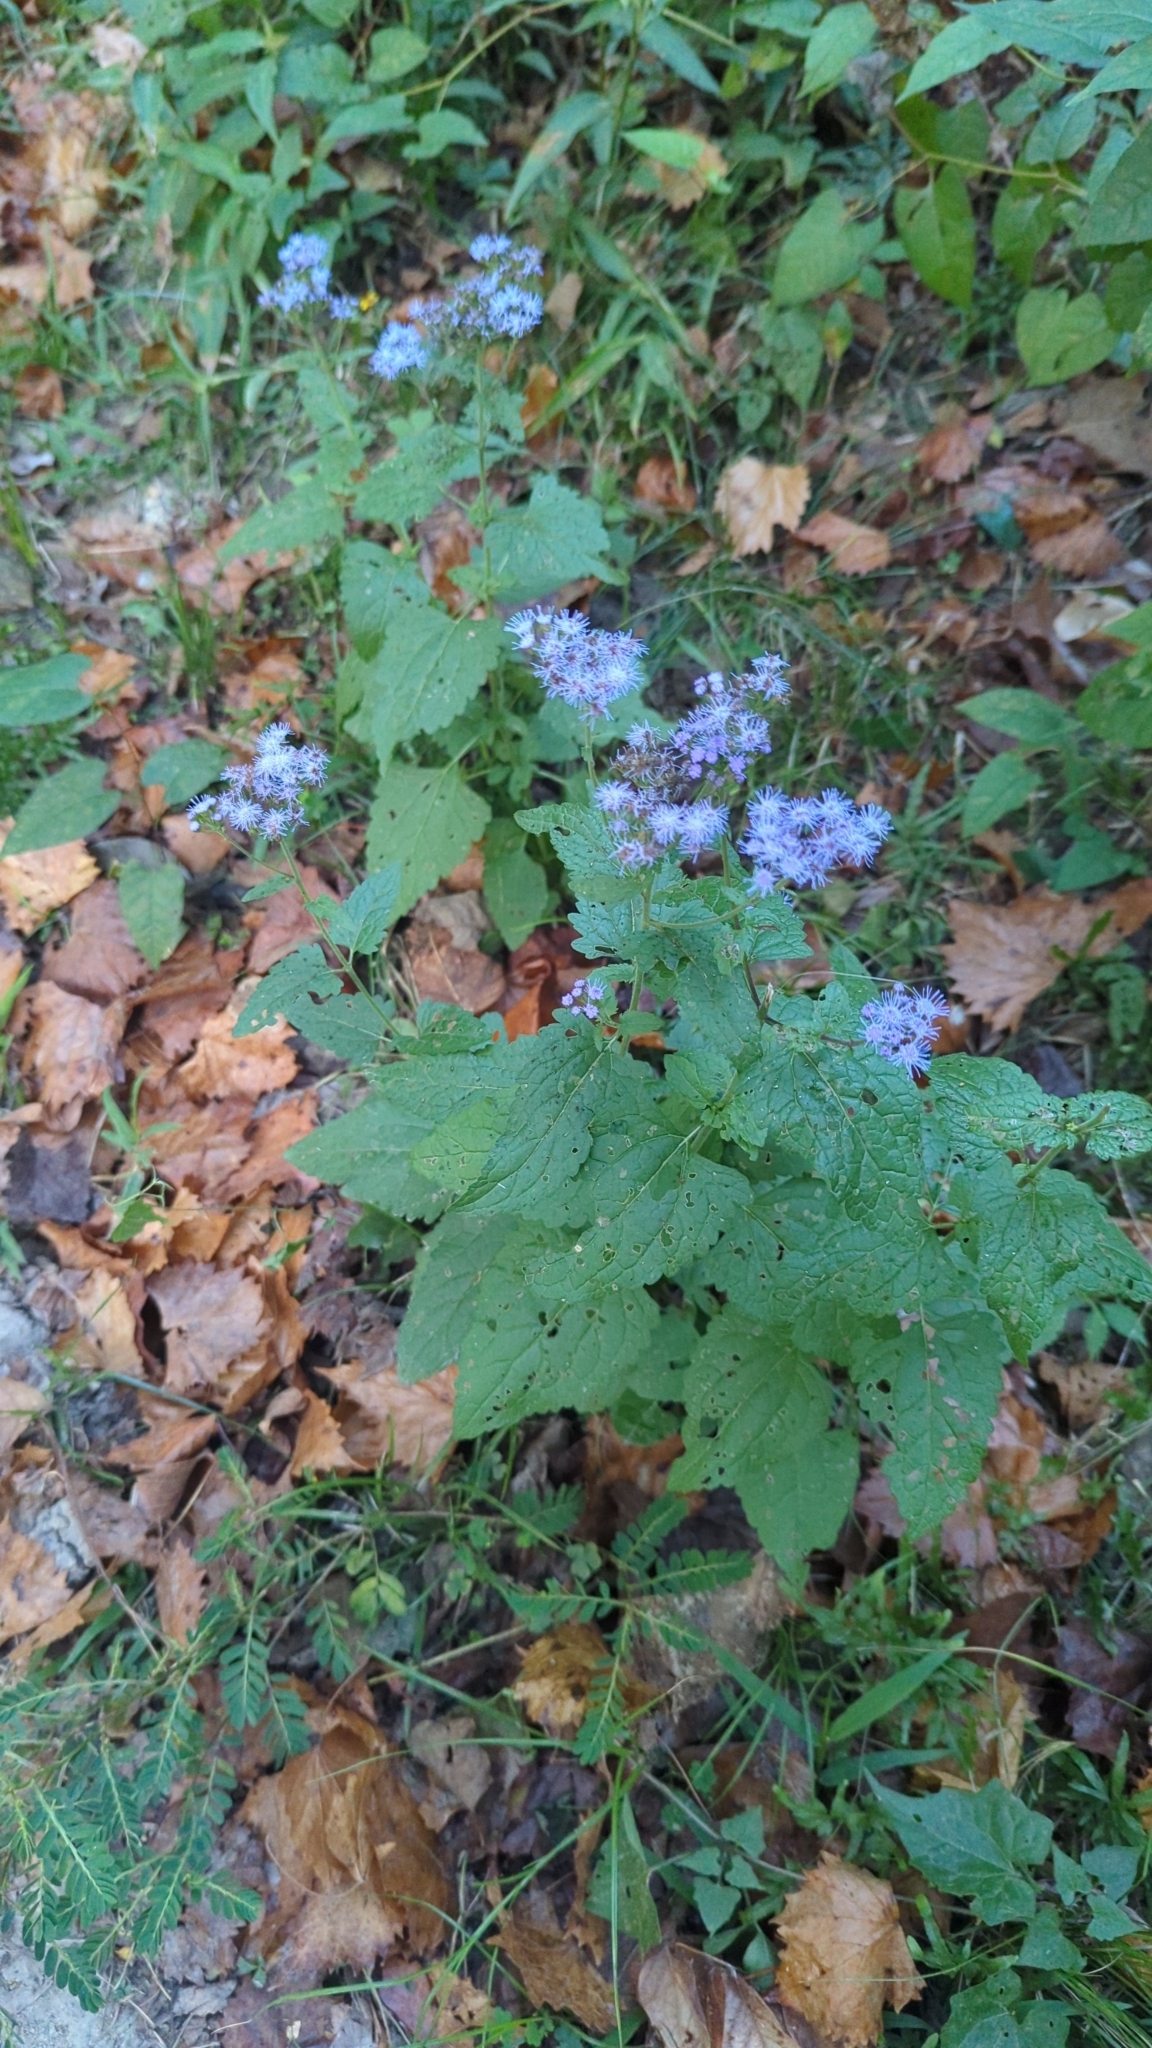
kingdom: Plantae
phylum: Tracheophyta
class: Magnoliopsida
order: Asterales
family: Asteraceae
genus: Conoclinium
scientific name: Conoclinium coelestinum
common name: Blue mistflower
